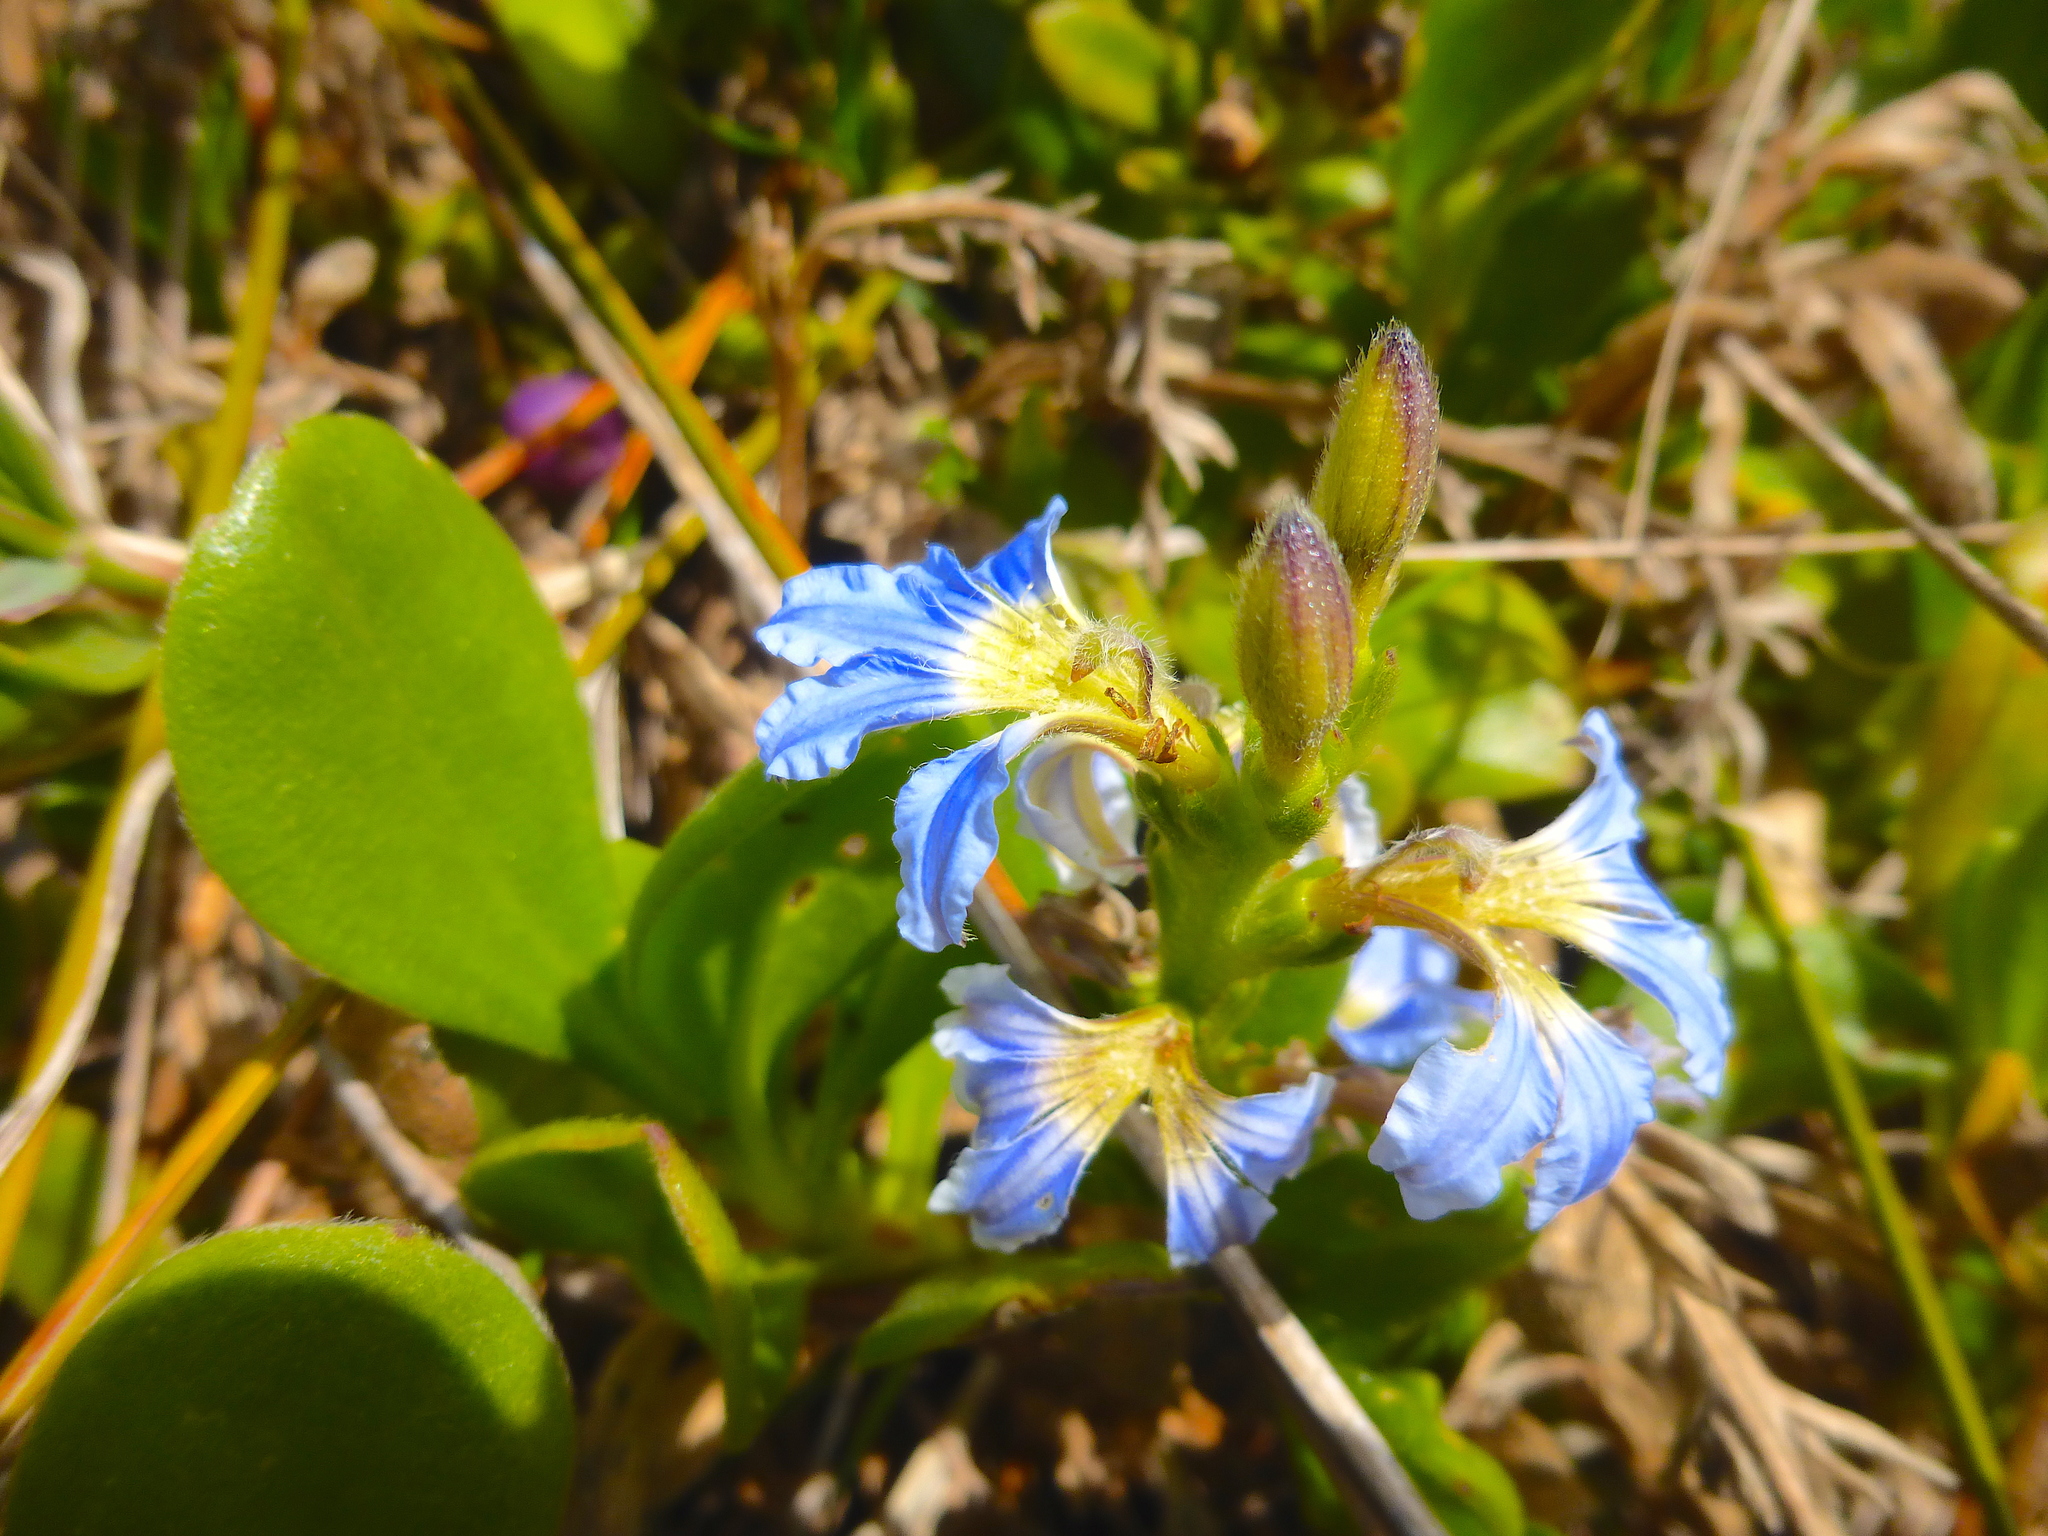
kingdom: Plantae
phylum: Tracheophyta
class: Magnoliopsida
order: Asterales
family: Goodeniaceae
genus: Scaevola
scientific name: Scaevola calendulacea
